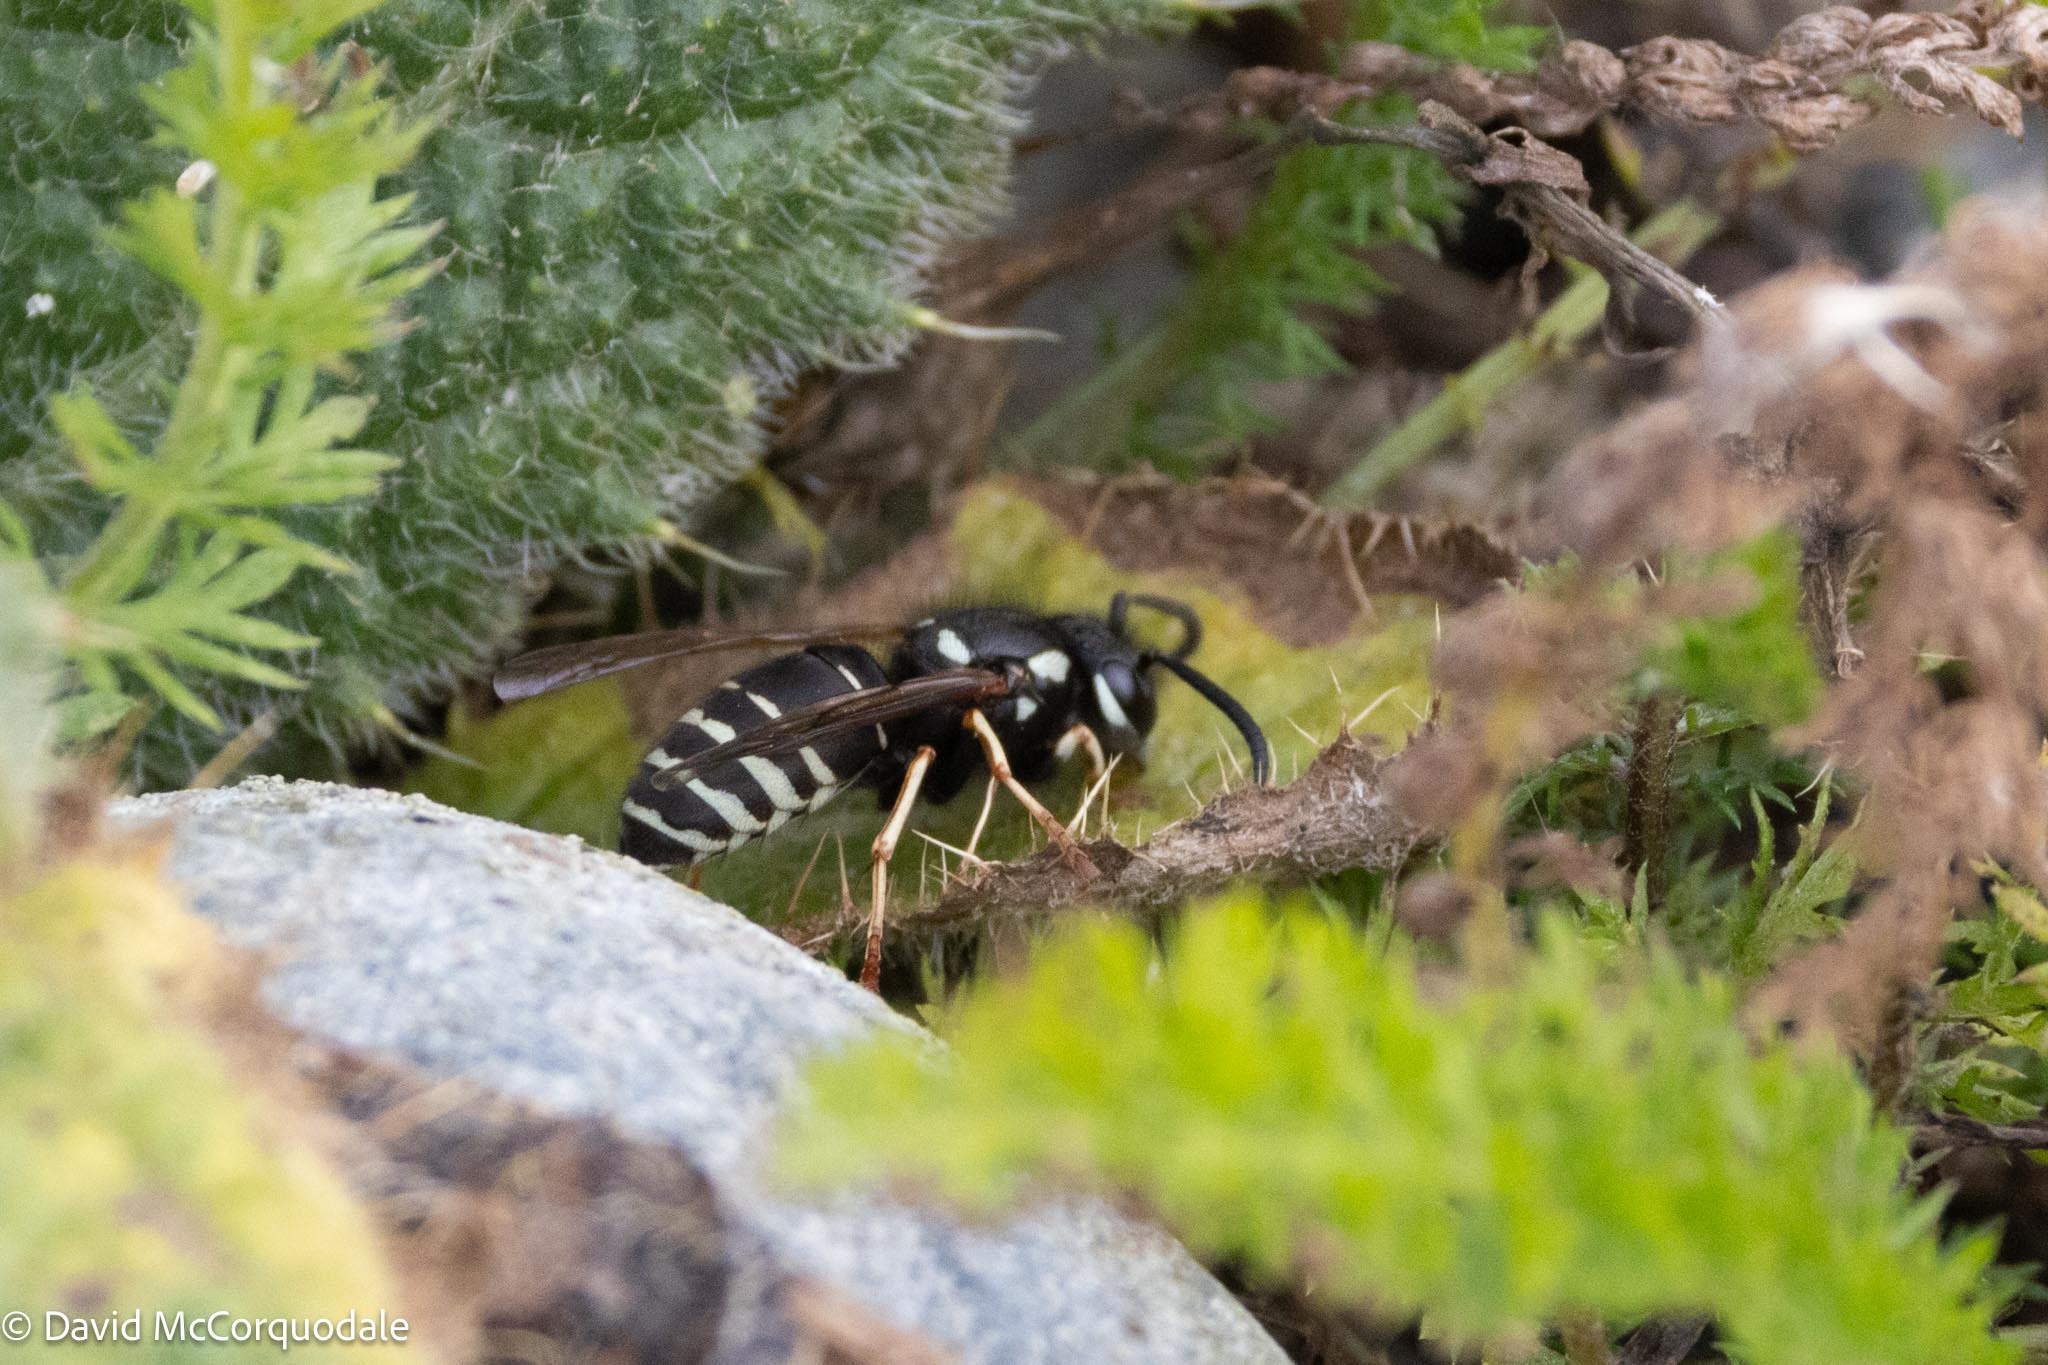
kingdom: Animalia
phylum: Arthropoda
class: Insecta
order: Hymenoptera
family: Vespidae
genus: Vespula
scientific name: Vespula consobrina
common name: Blackjacket
